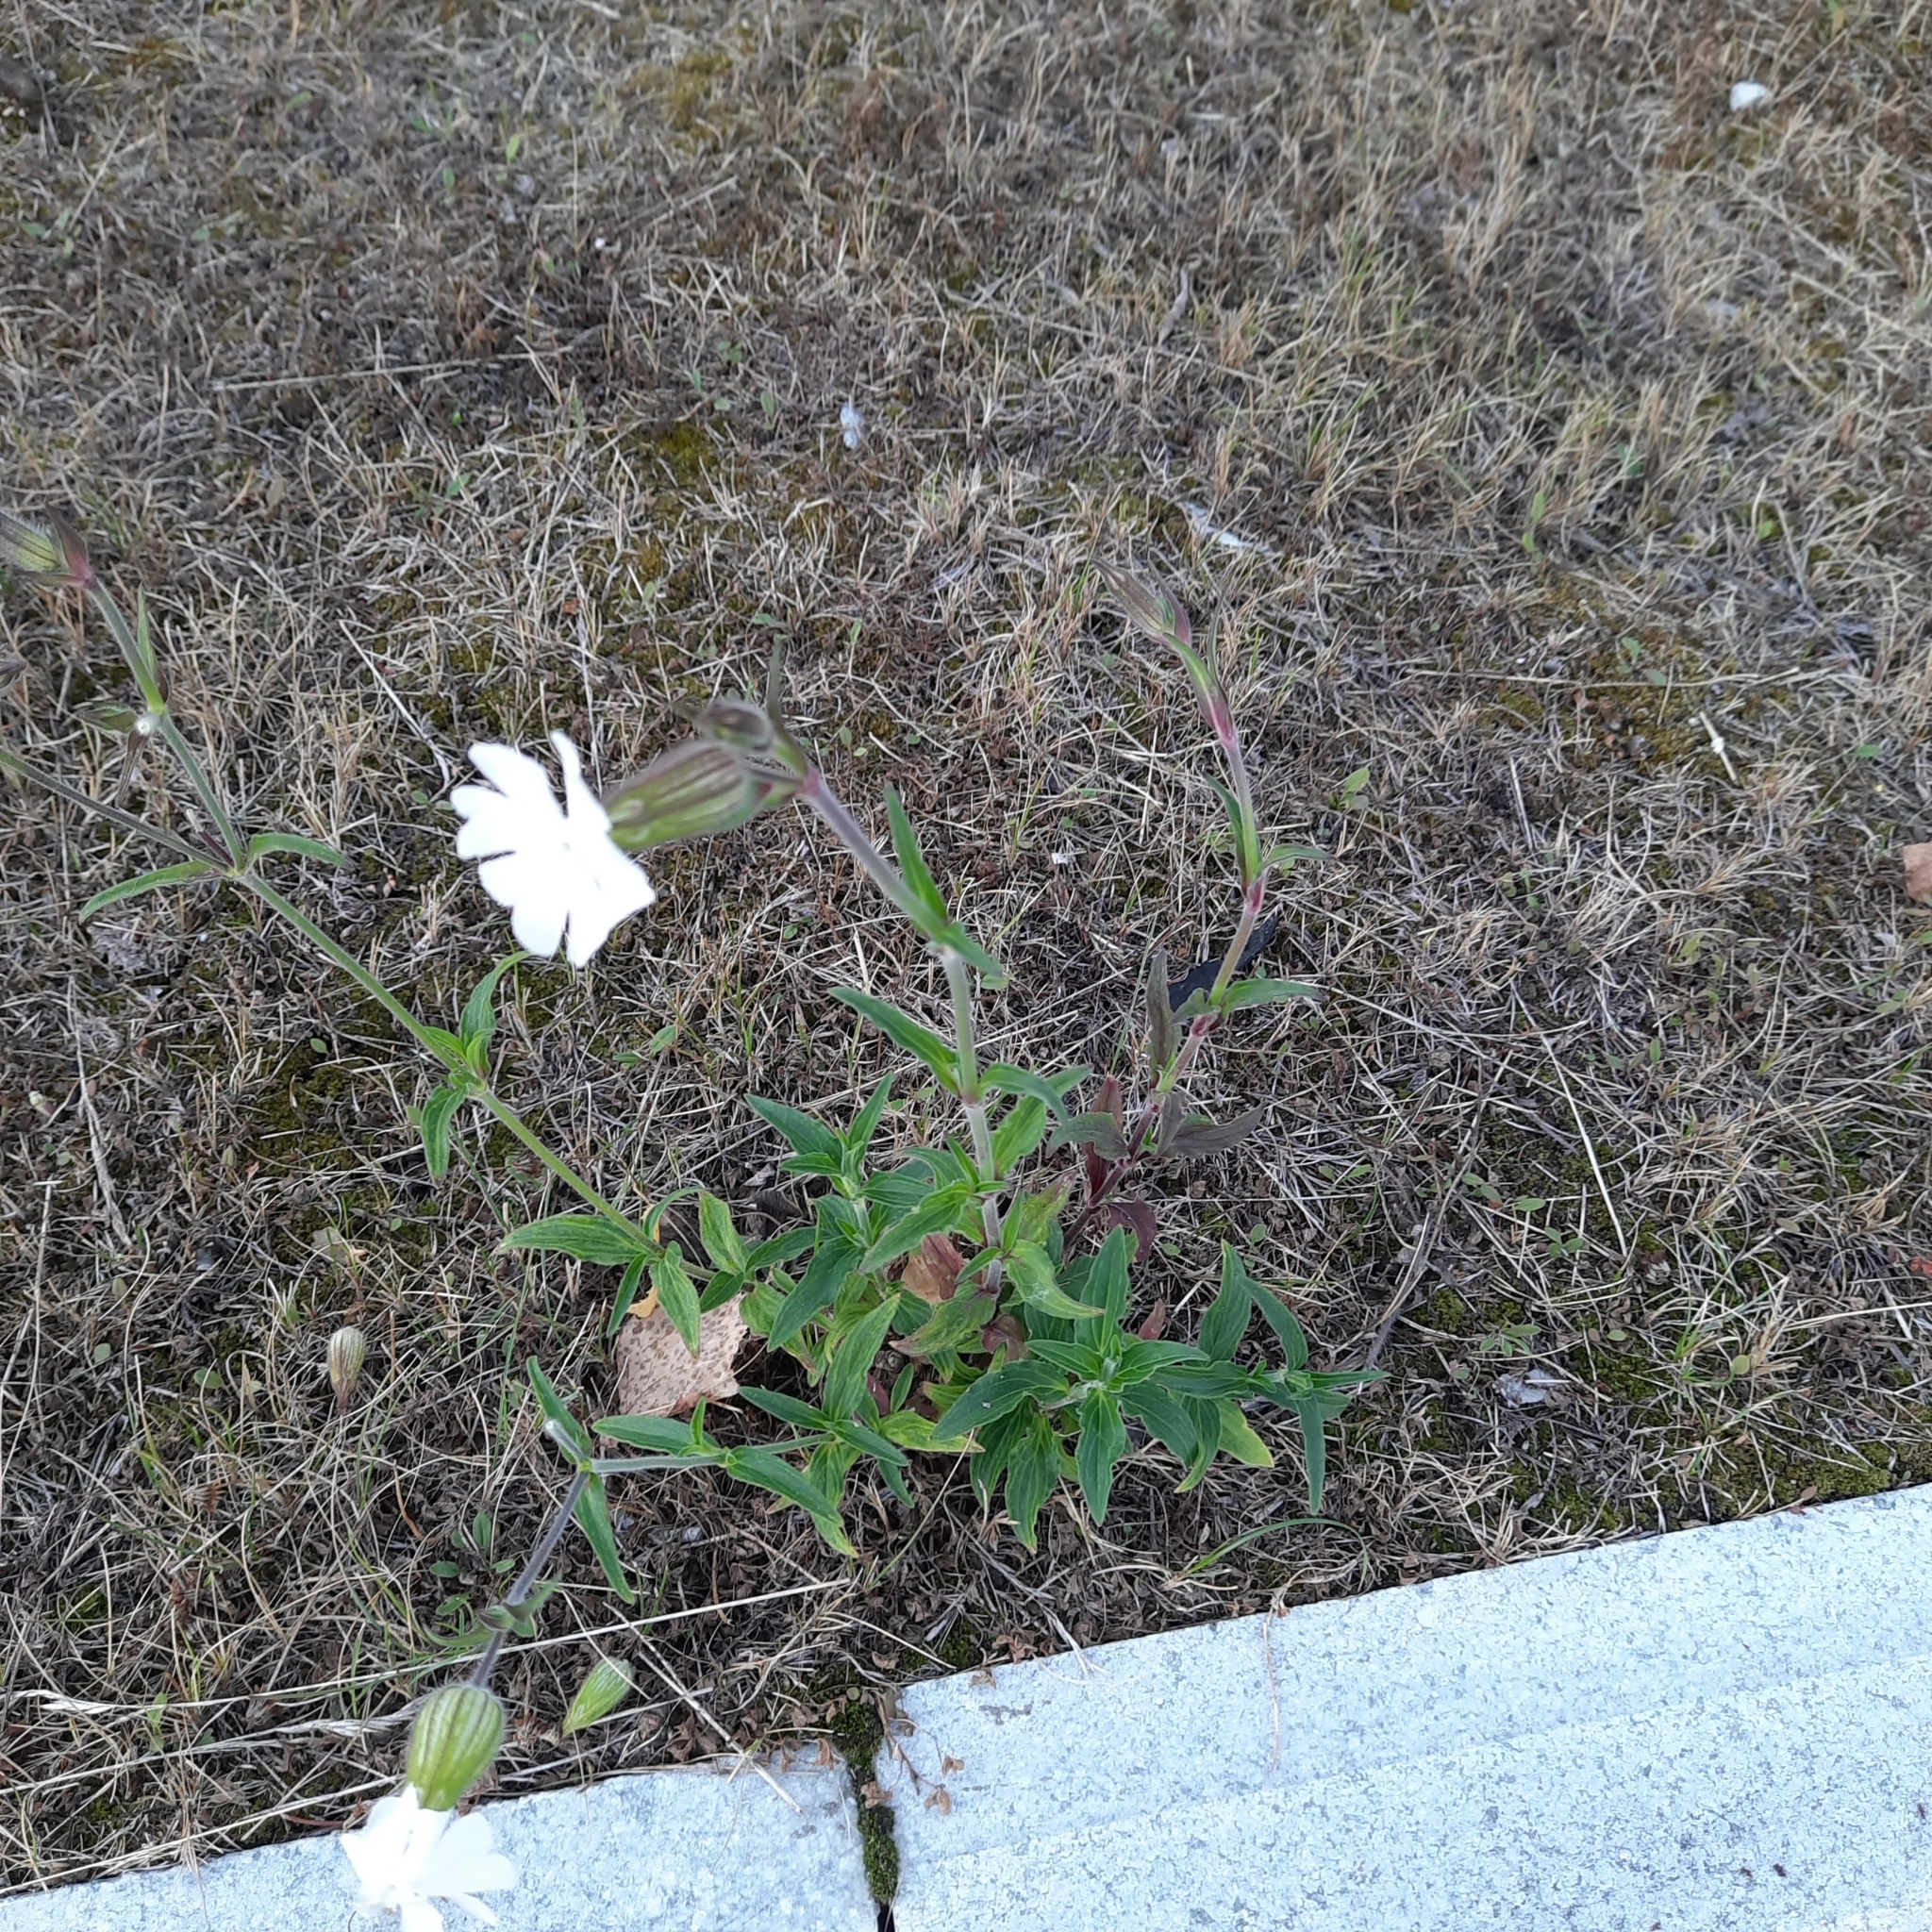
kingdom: Plantae
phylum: Tracheophyta
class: Magnoliopsida
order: Caryophyllales
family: Caryophyllaceae
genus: Silene
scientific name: Silene latifolia
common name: White campion
